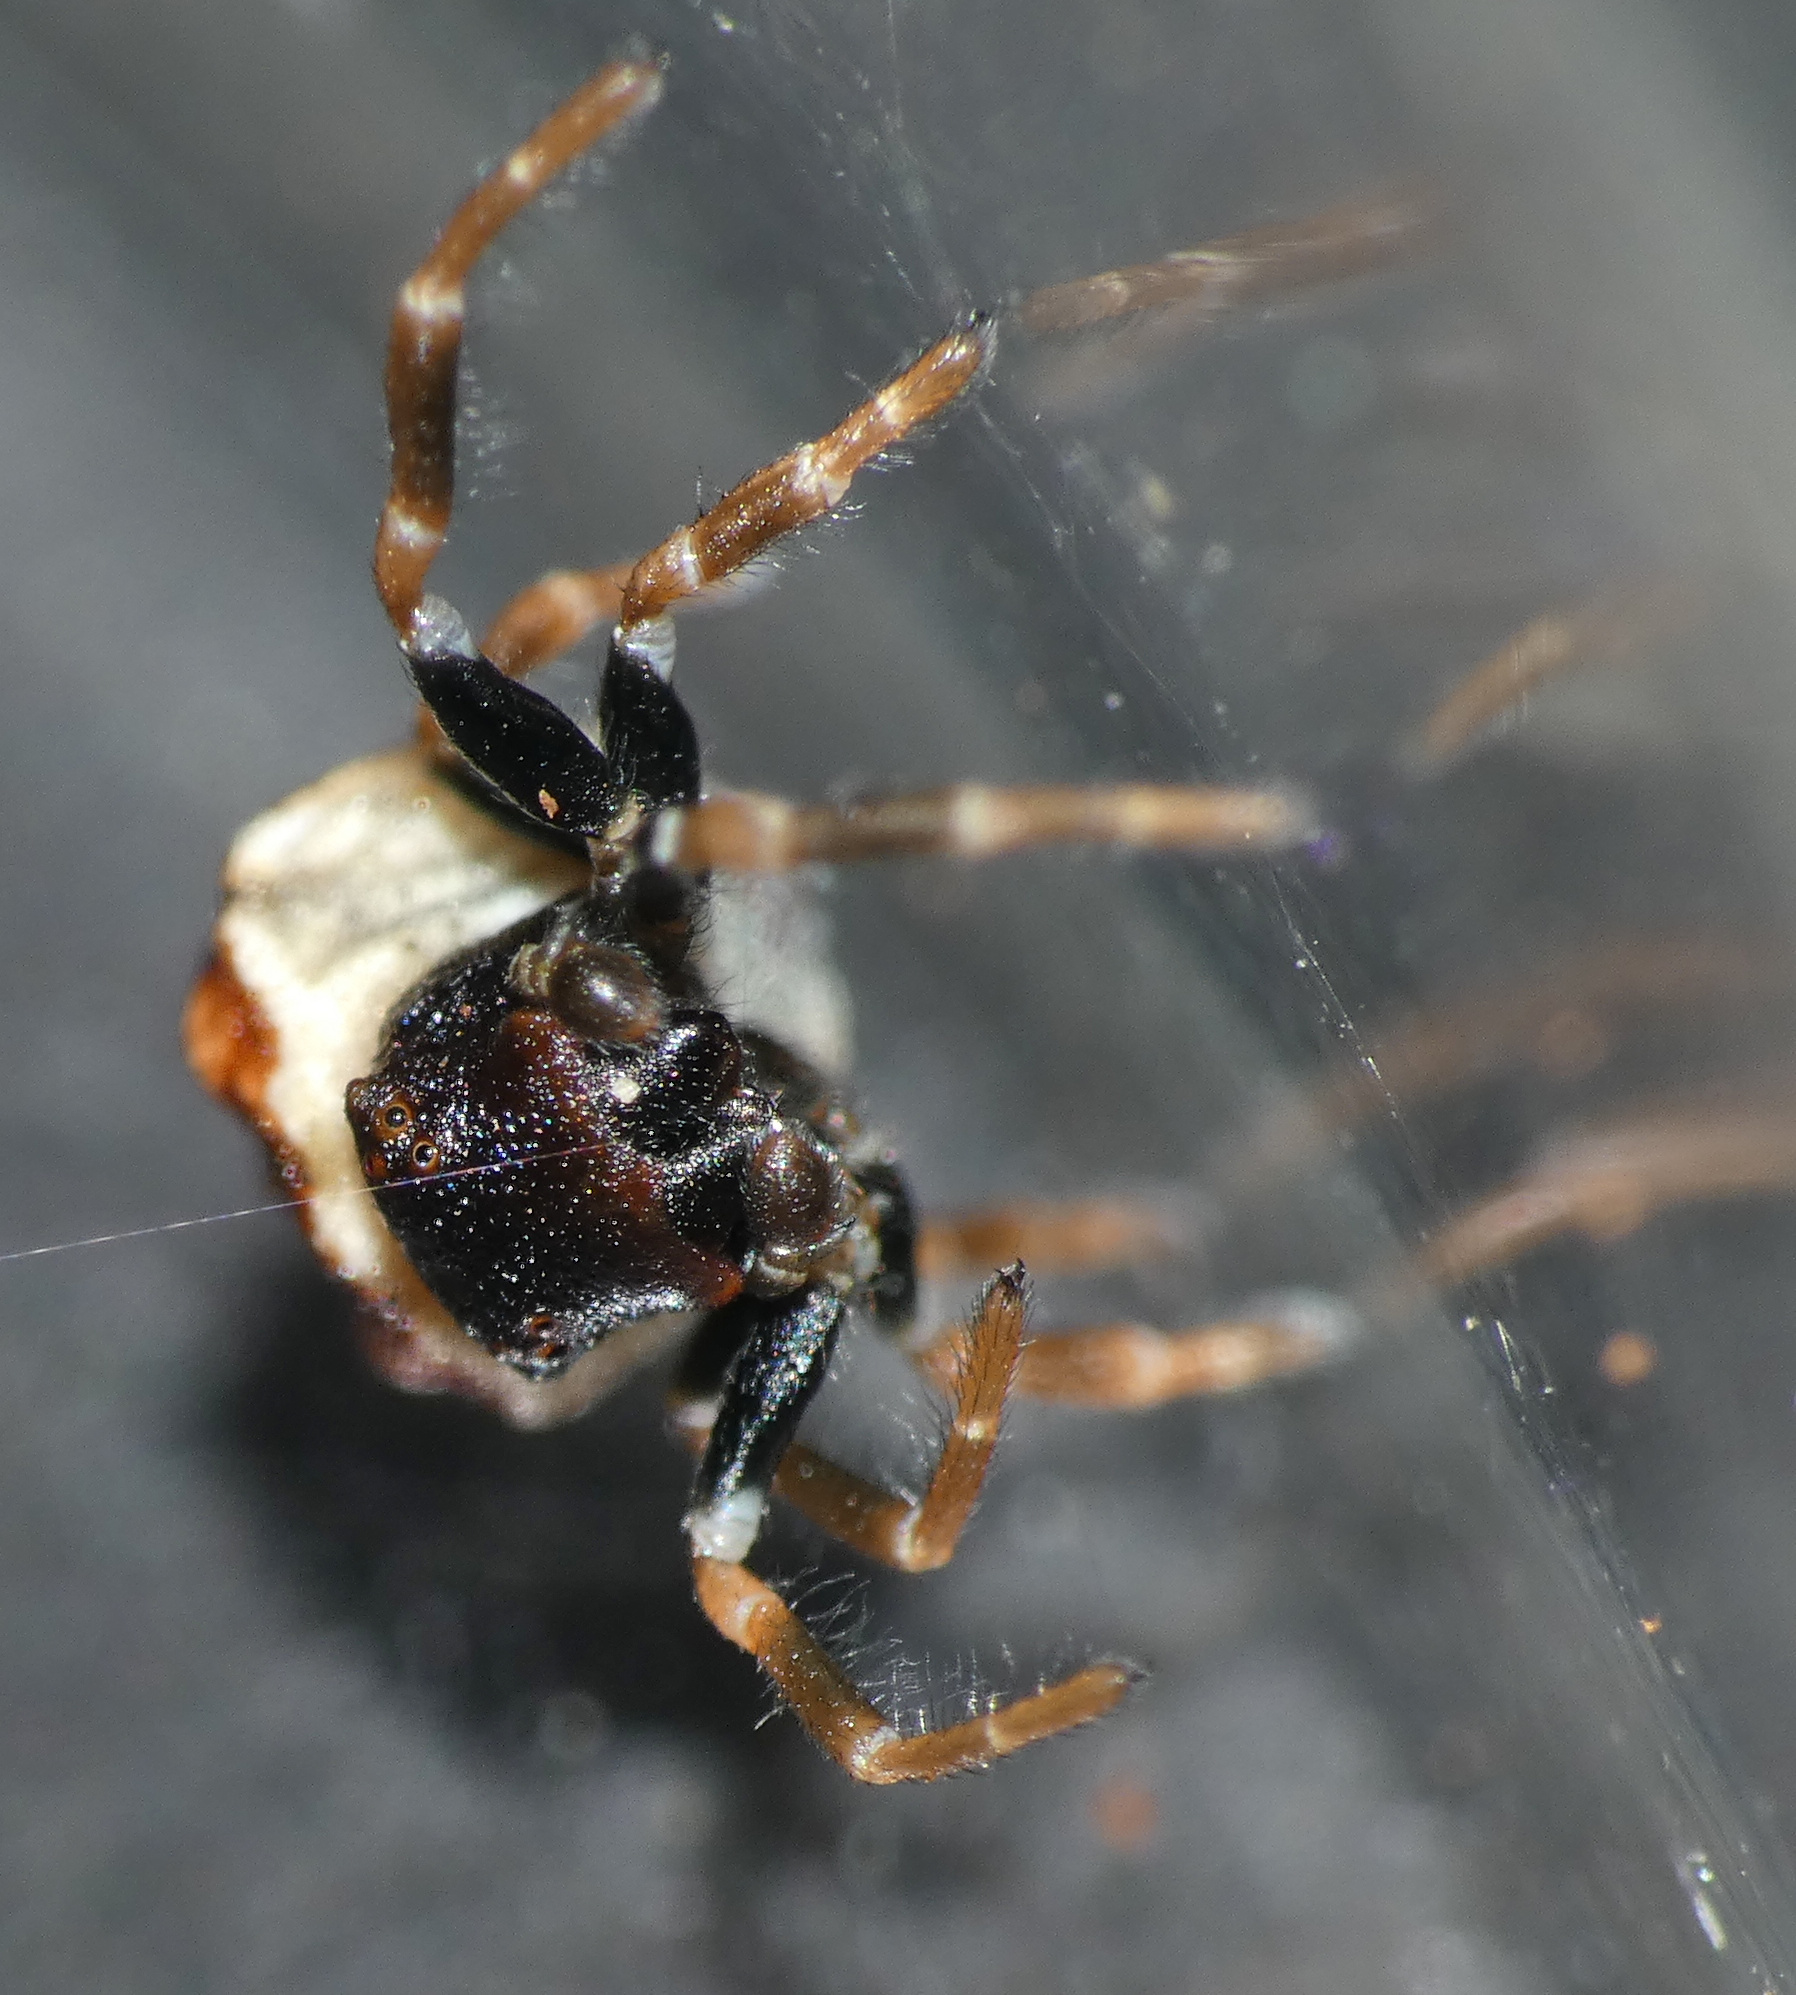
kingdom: Animalia
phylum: Arthropoda
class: Arachnida
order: Araneae
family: Thomisidae
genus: Parabomis
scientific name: Parabomis megae
